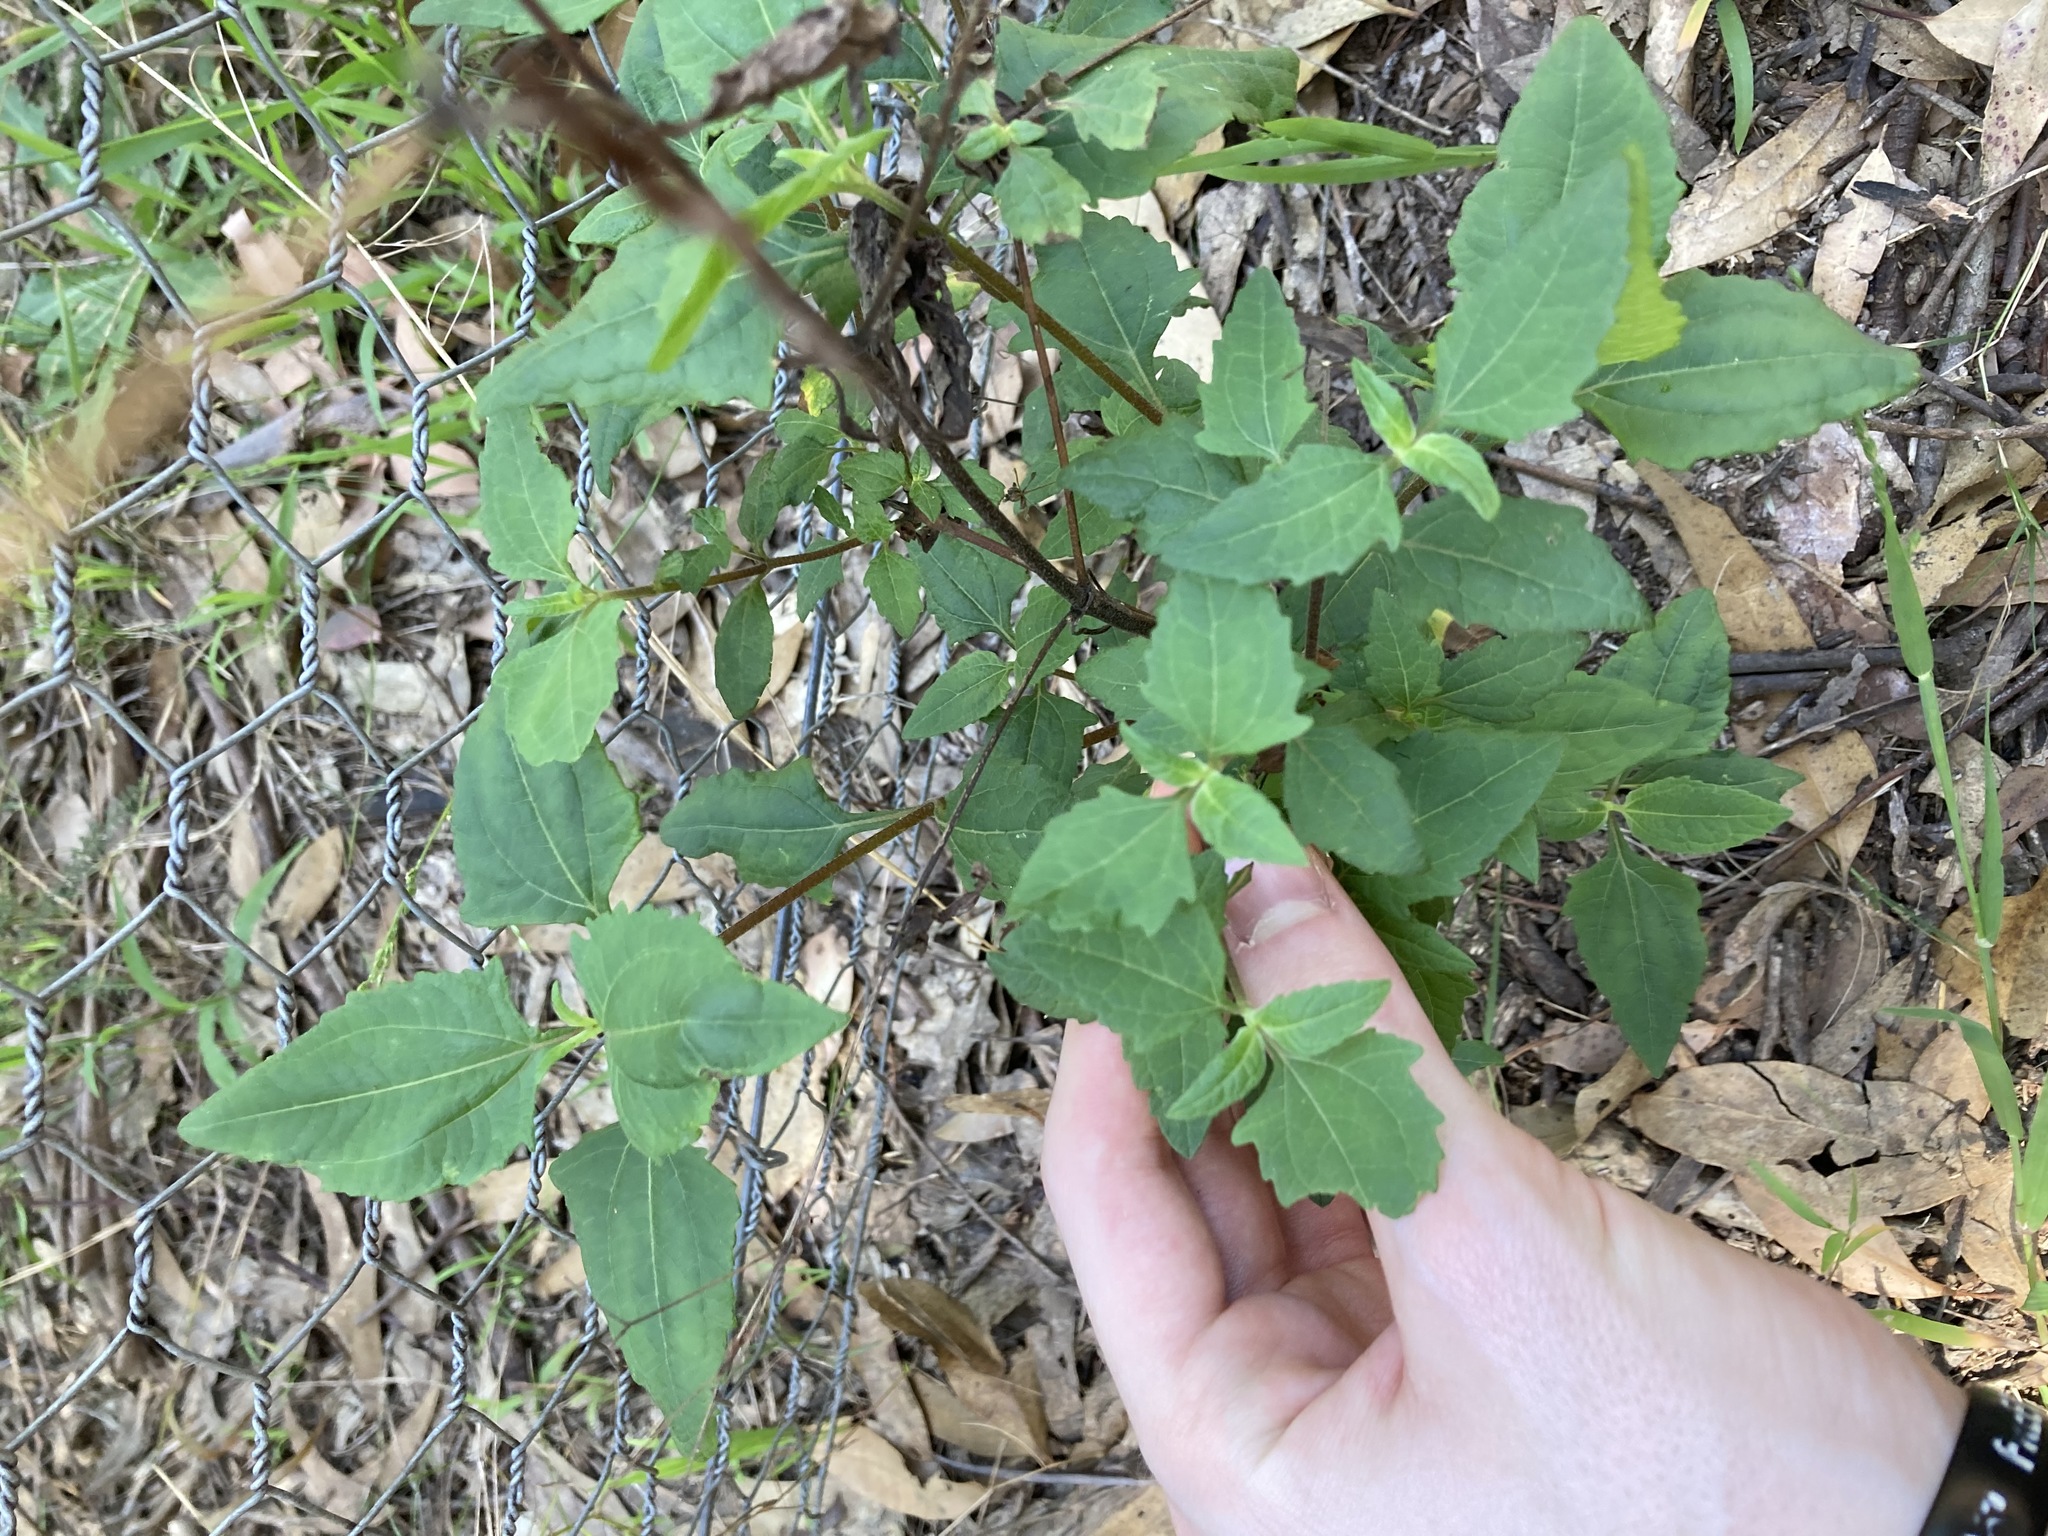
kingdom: Plantae
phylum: Tracheophyta
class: Magnoliopsida
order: Asterales
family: Asteraceae
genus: Sigesbeckia
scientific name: Sigesbeckia orientalis
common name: Eastern st paul's-wort
